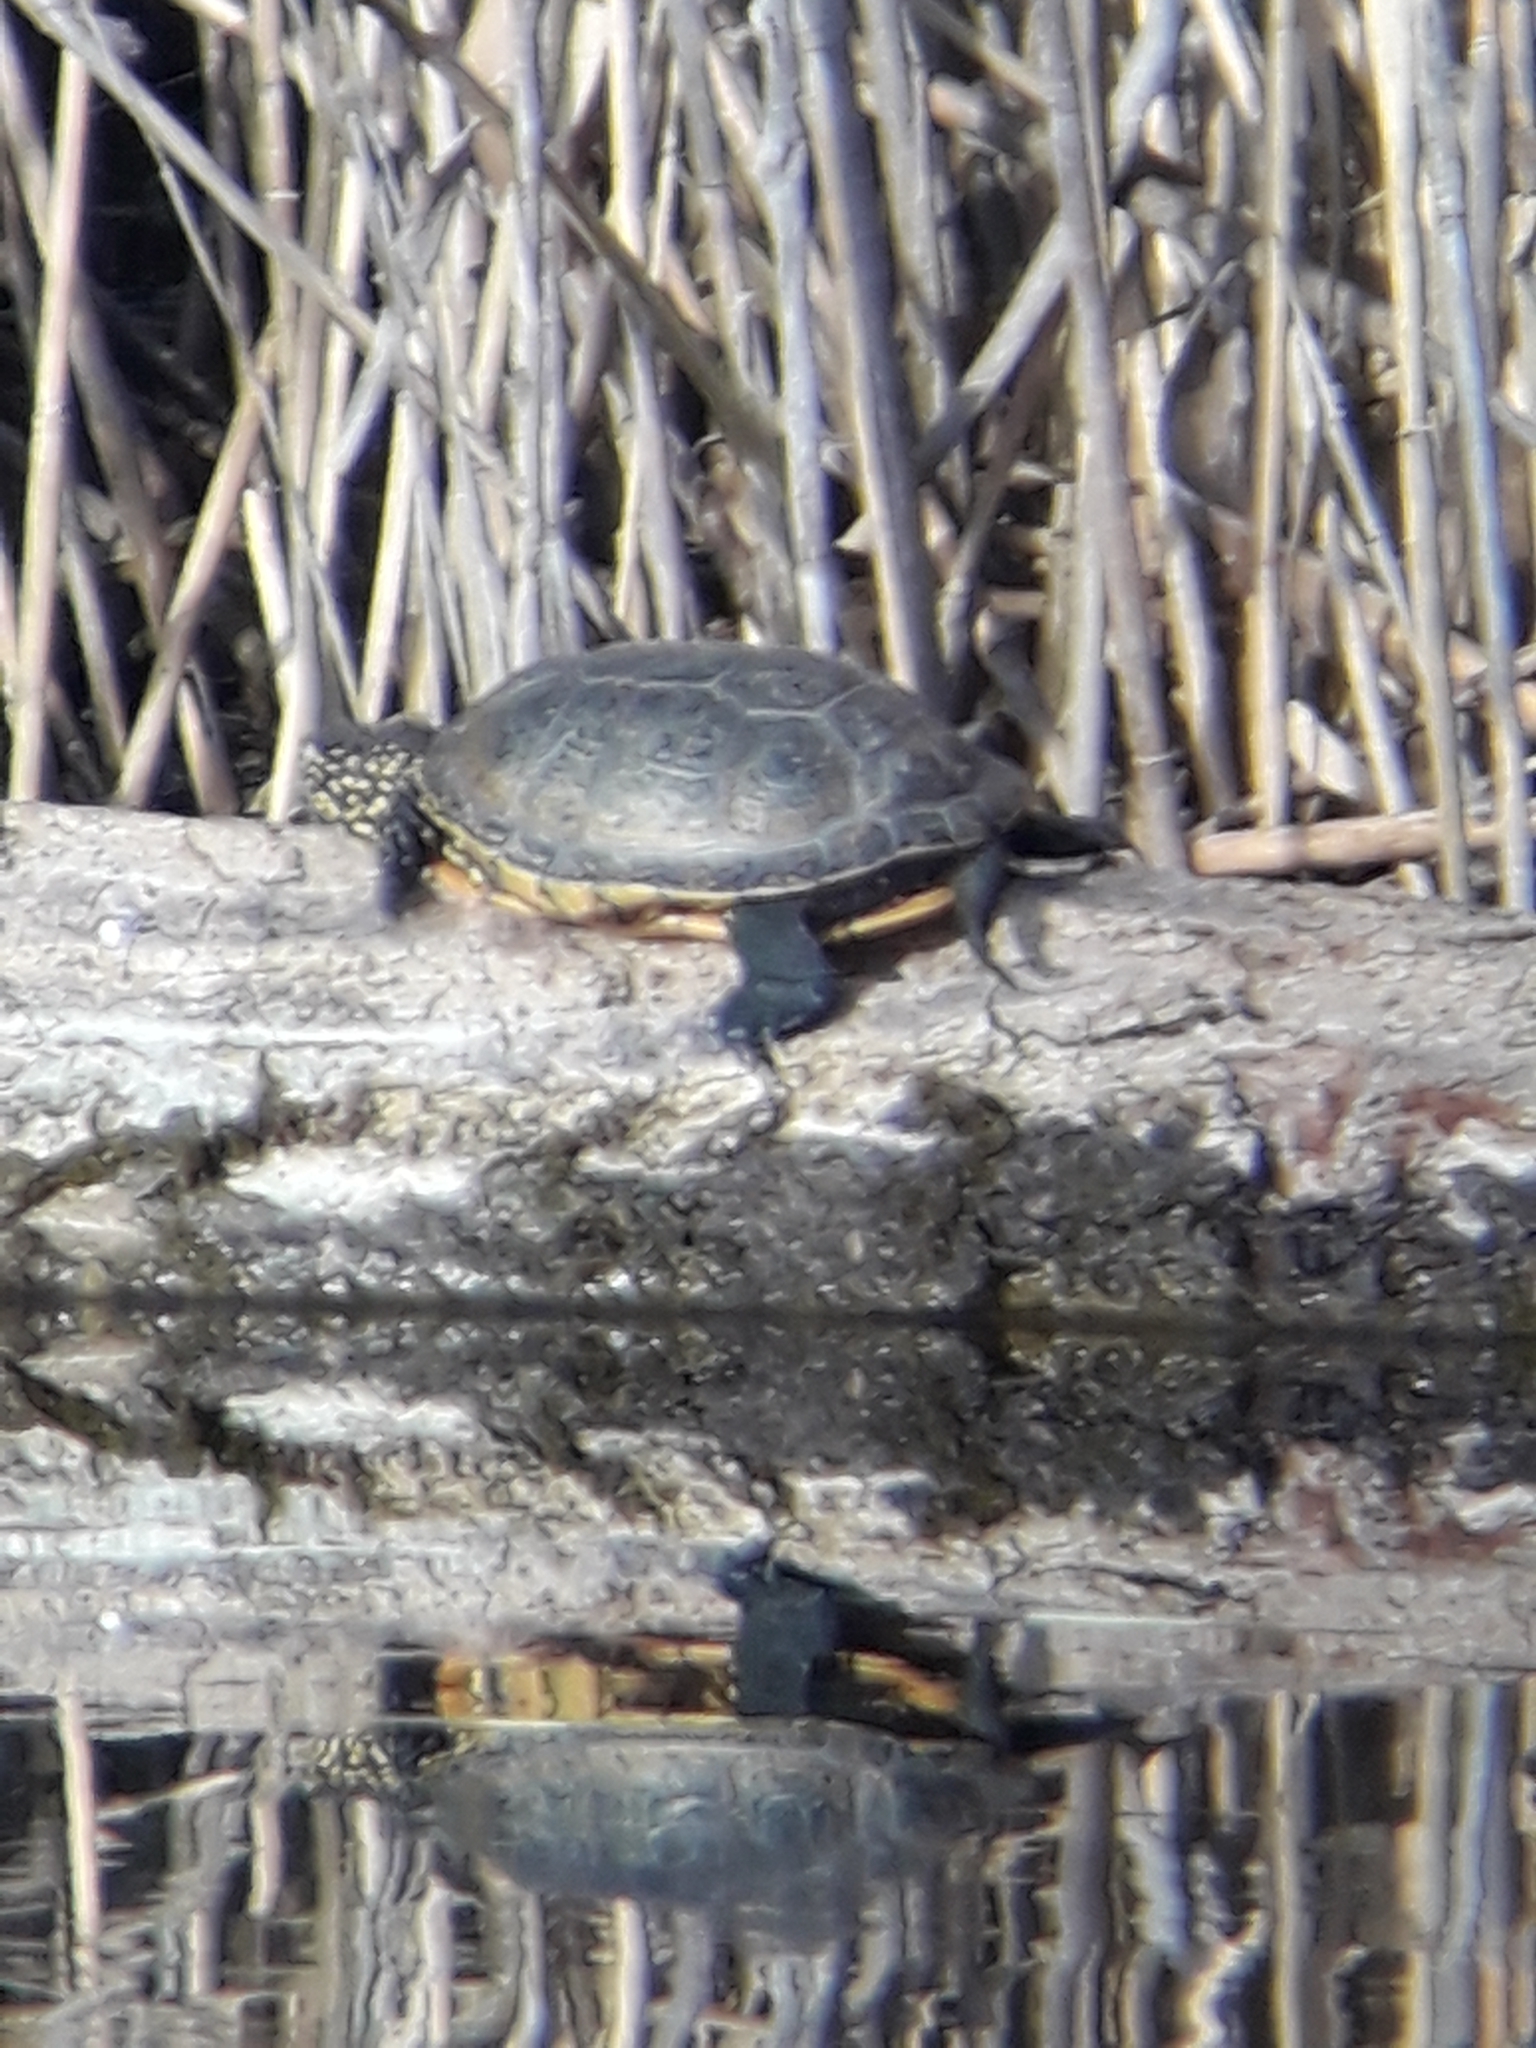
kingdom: Animalia
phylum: Chordata
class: Testudines
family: Emydidae
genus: Emys
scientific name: Emys orbicularis
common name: European pond turtle
